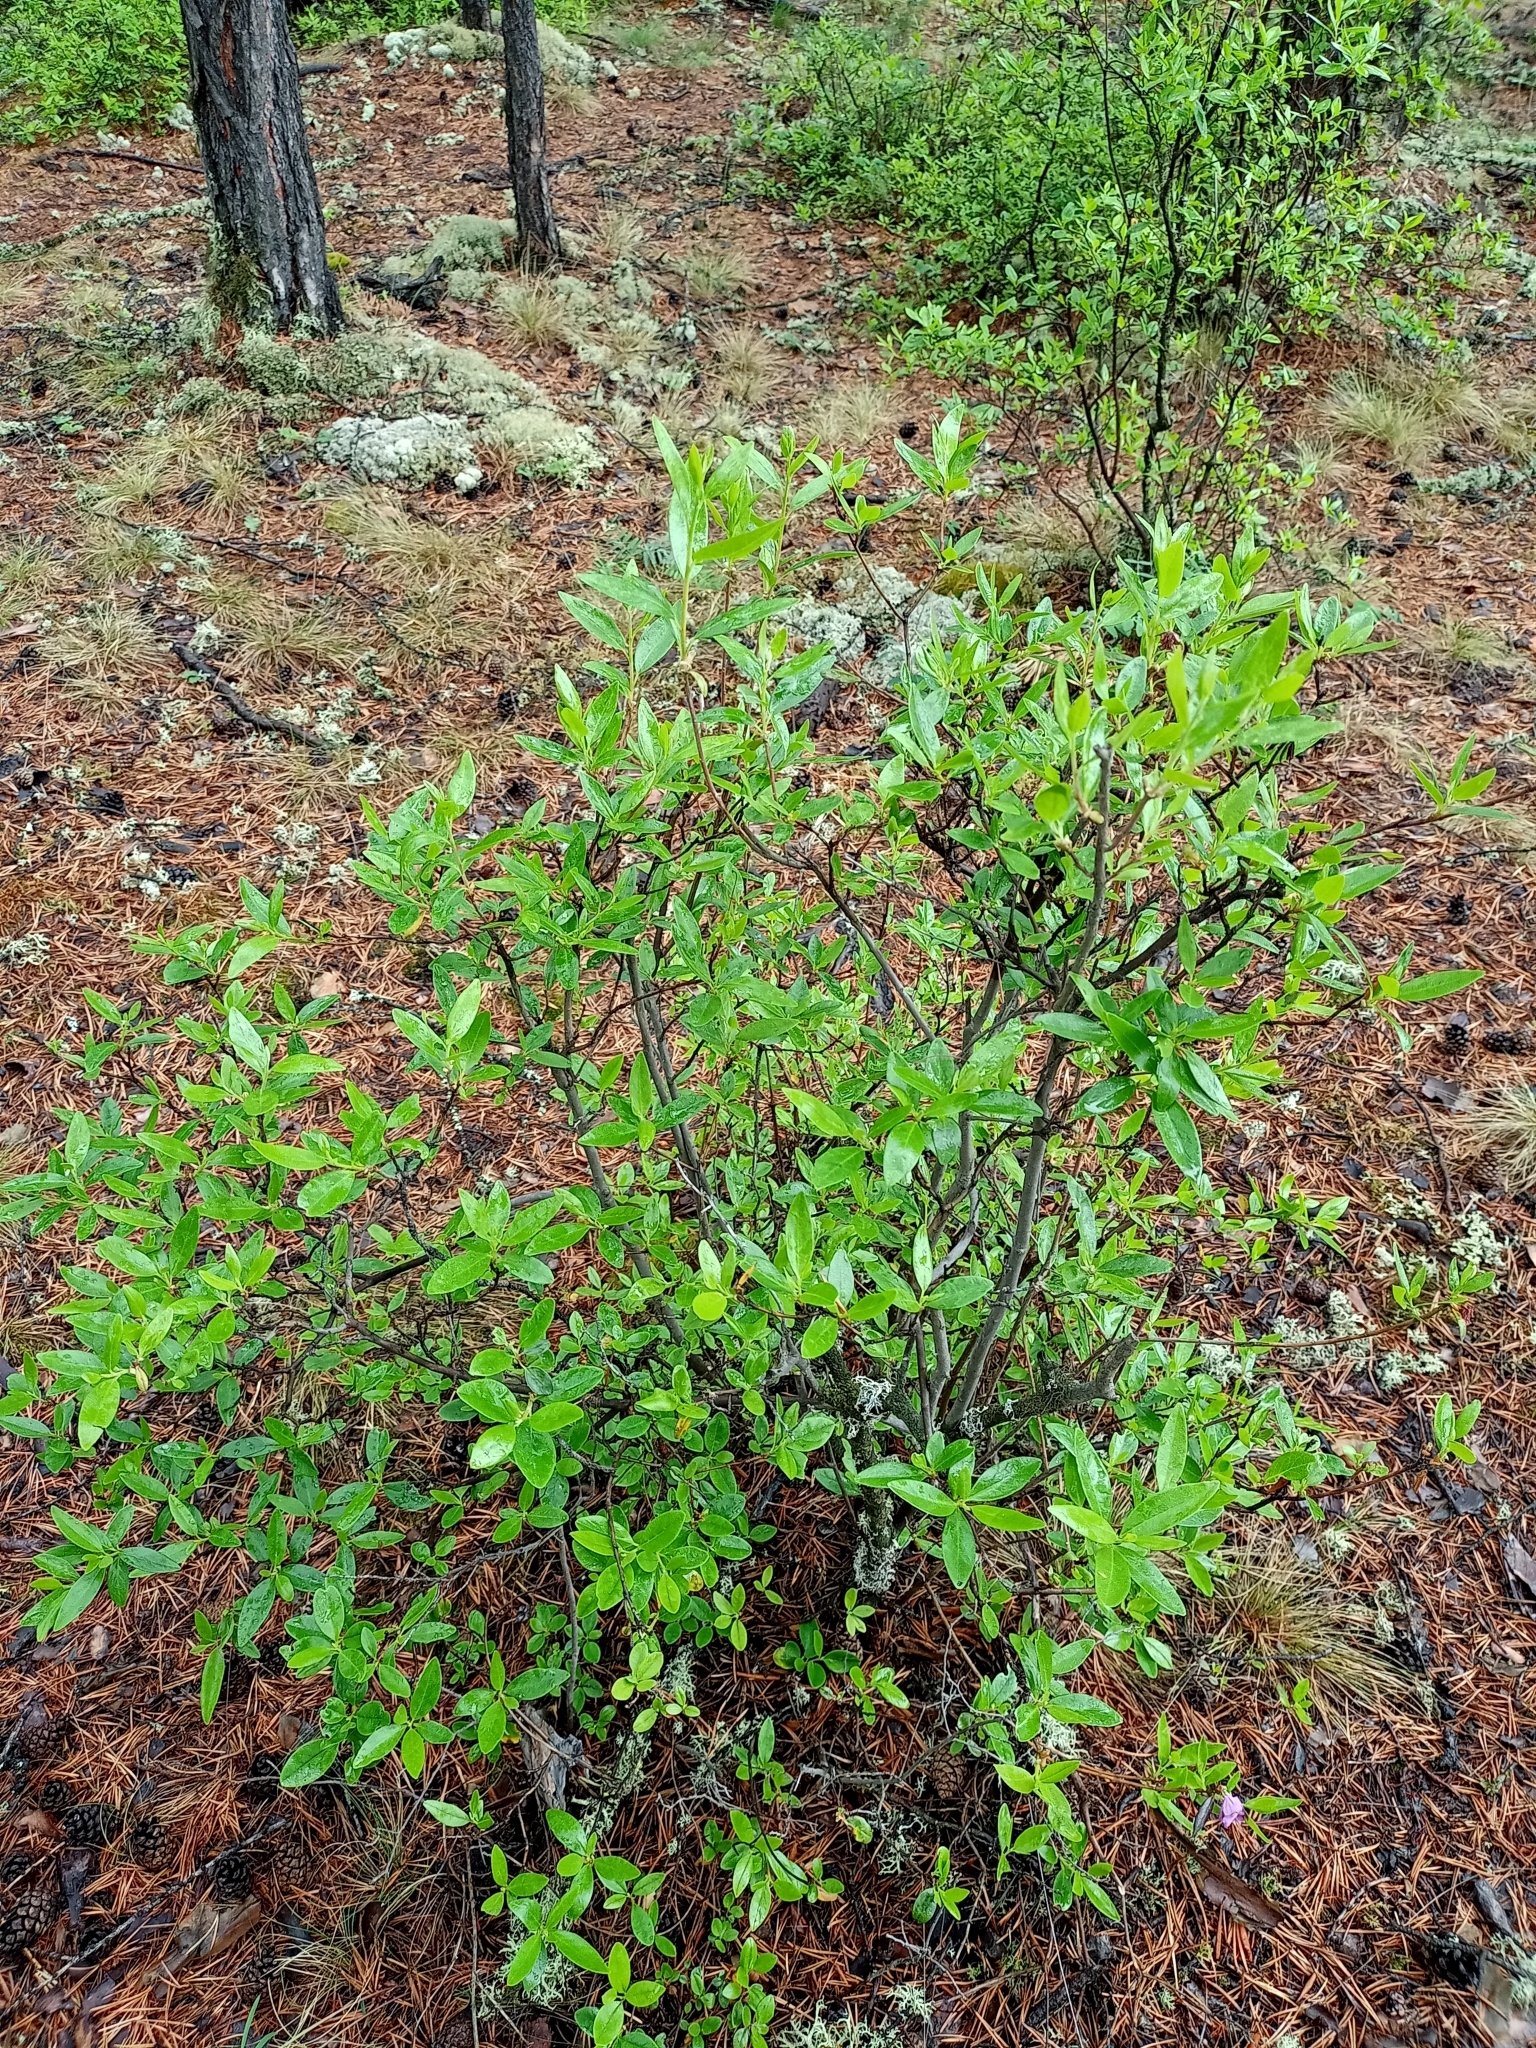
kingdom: Plantae
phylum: Tracheophyta
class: Magnoliopsida
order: Ericales
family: Ericaceae
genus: Rhododendron
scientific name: Rhododendron dauricum
